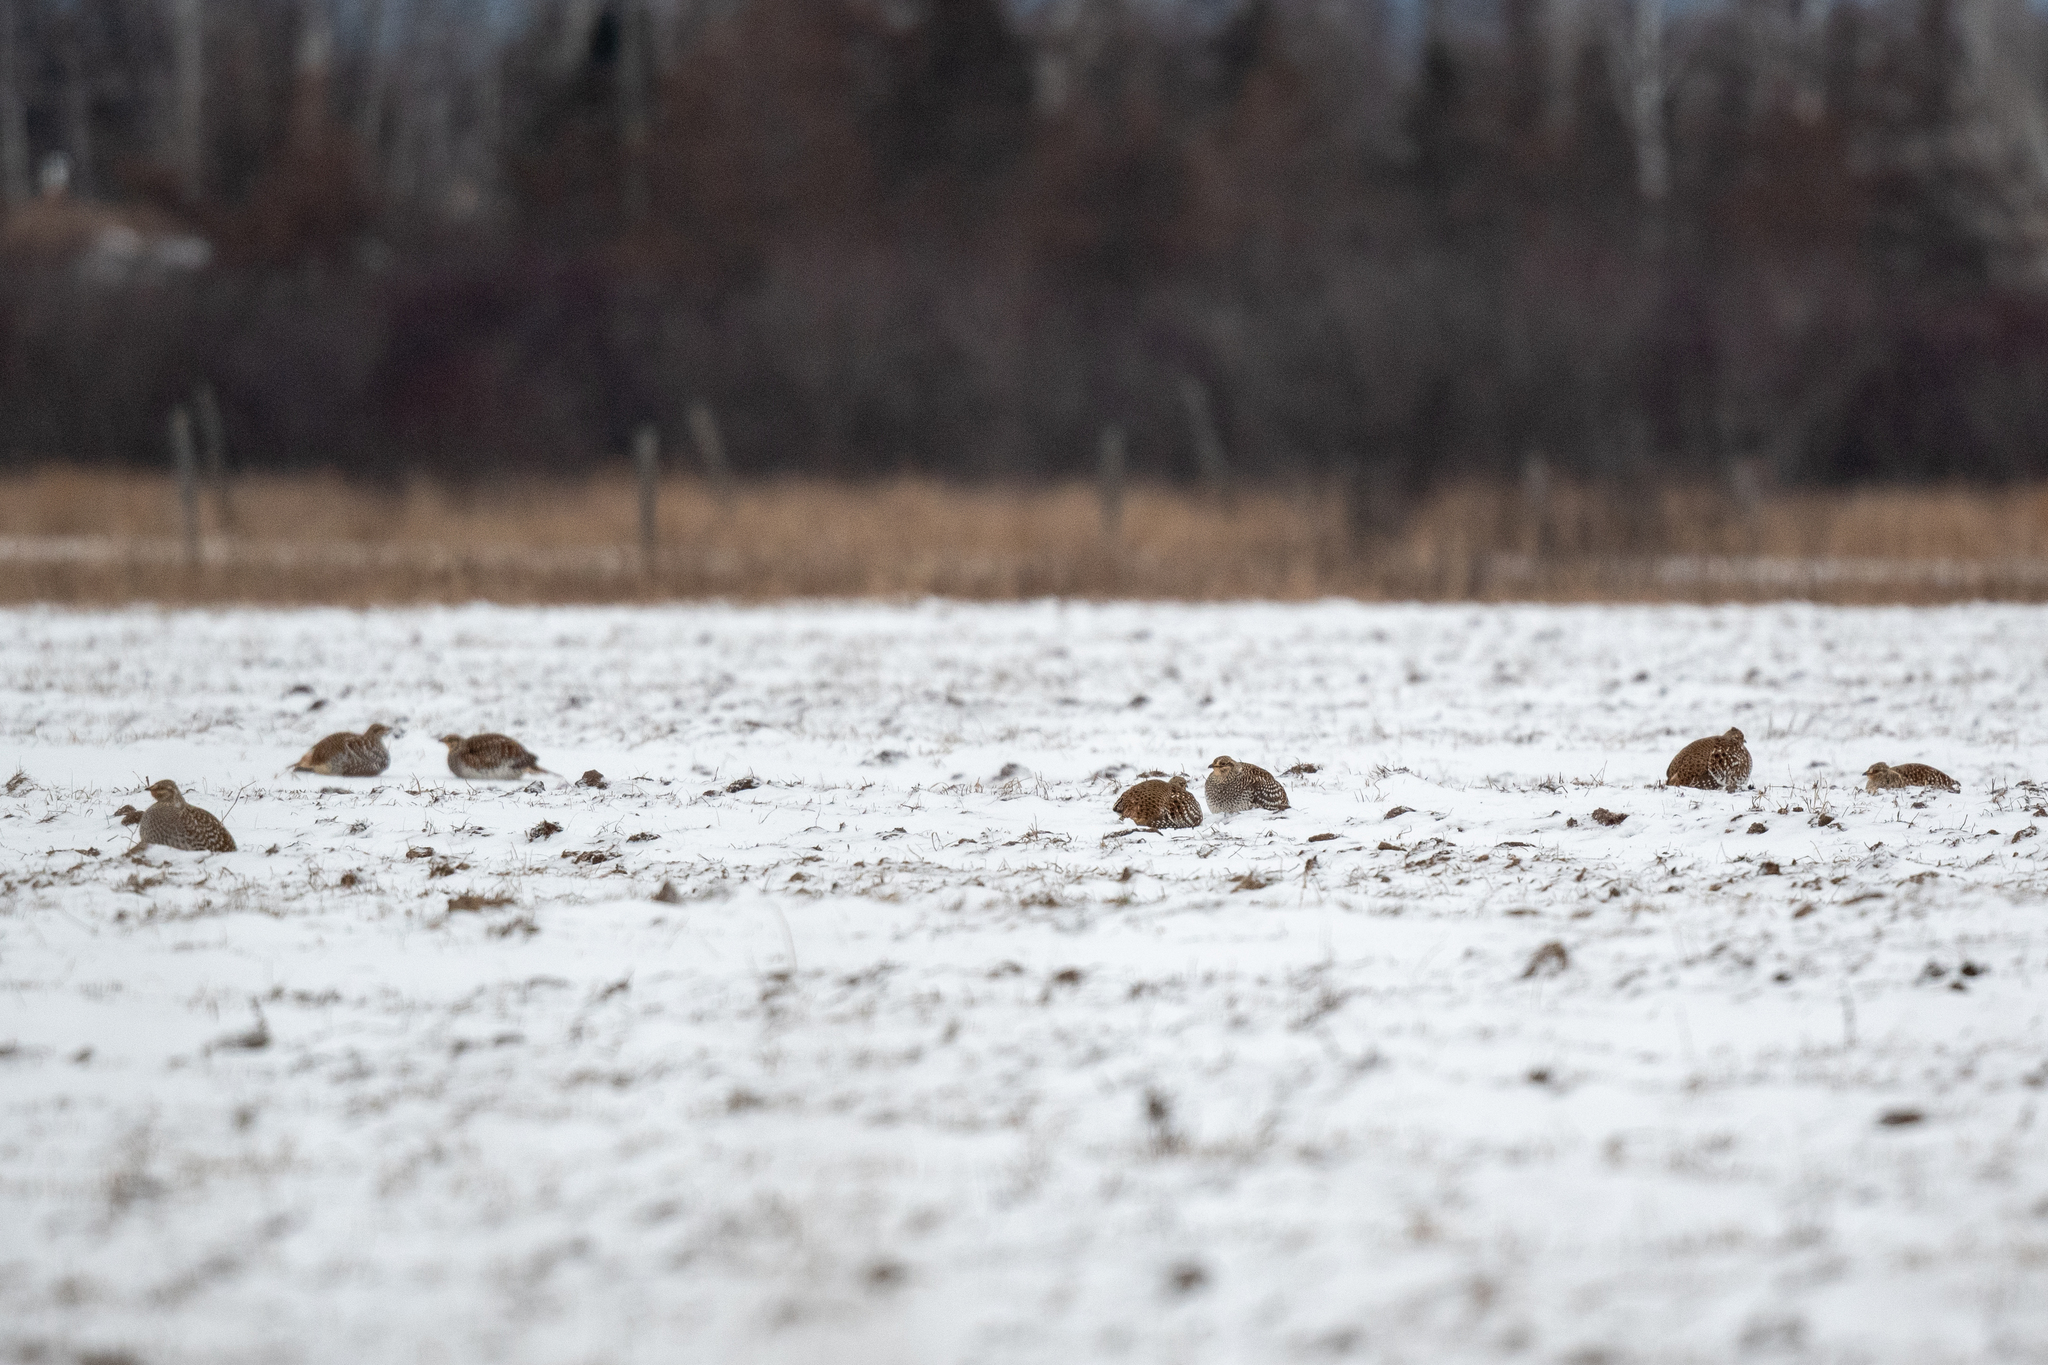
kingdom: Animalia
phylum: Chordata
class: Aves
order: Galliformes
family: Phasianidae
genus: Tympanuchus
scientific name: Tympanuchus phasianellus
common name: Sharp-tailed grouse
